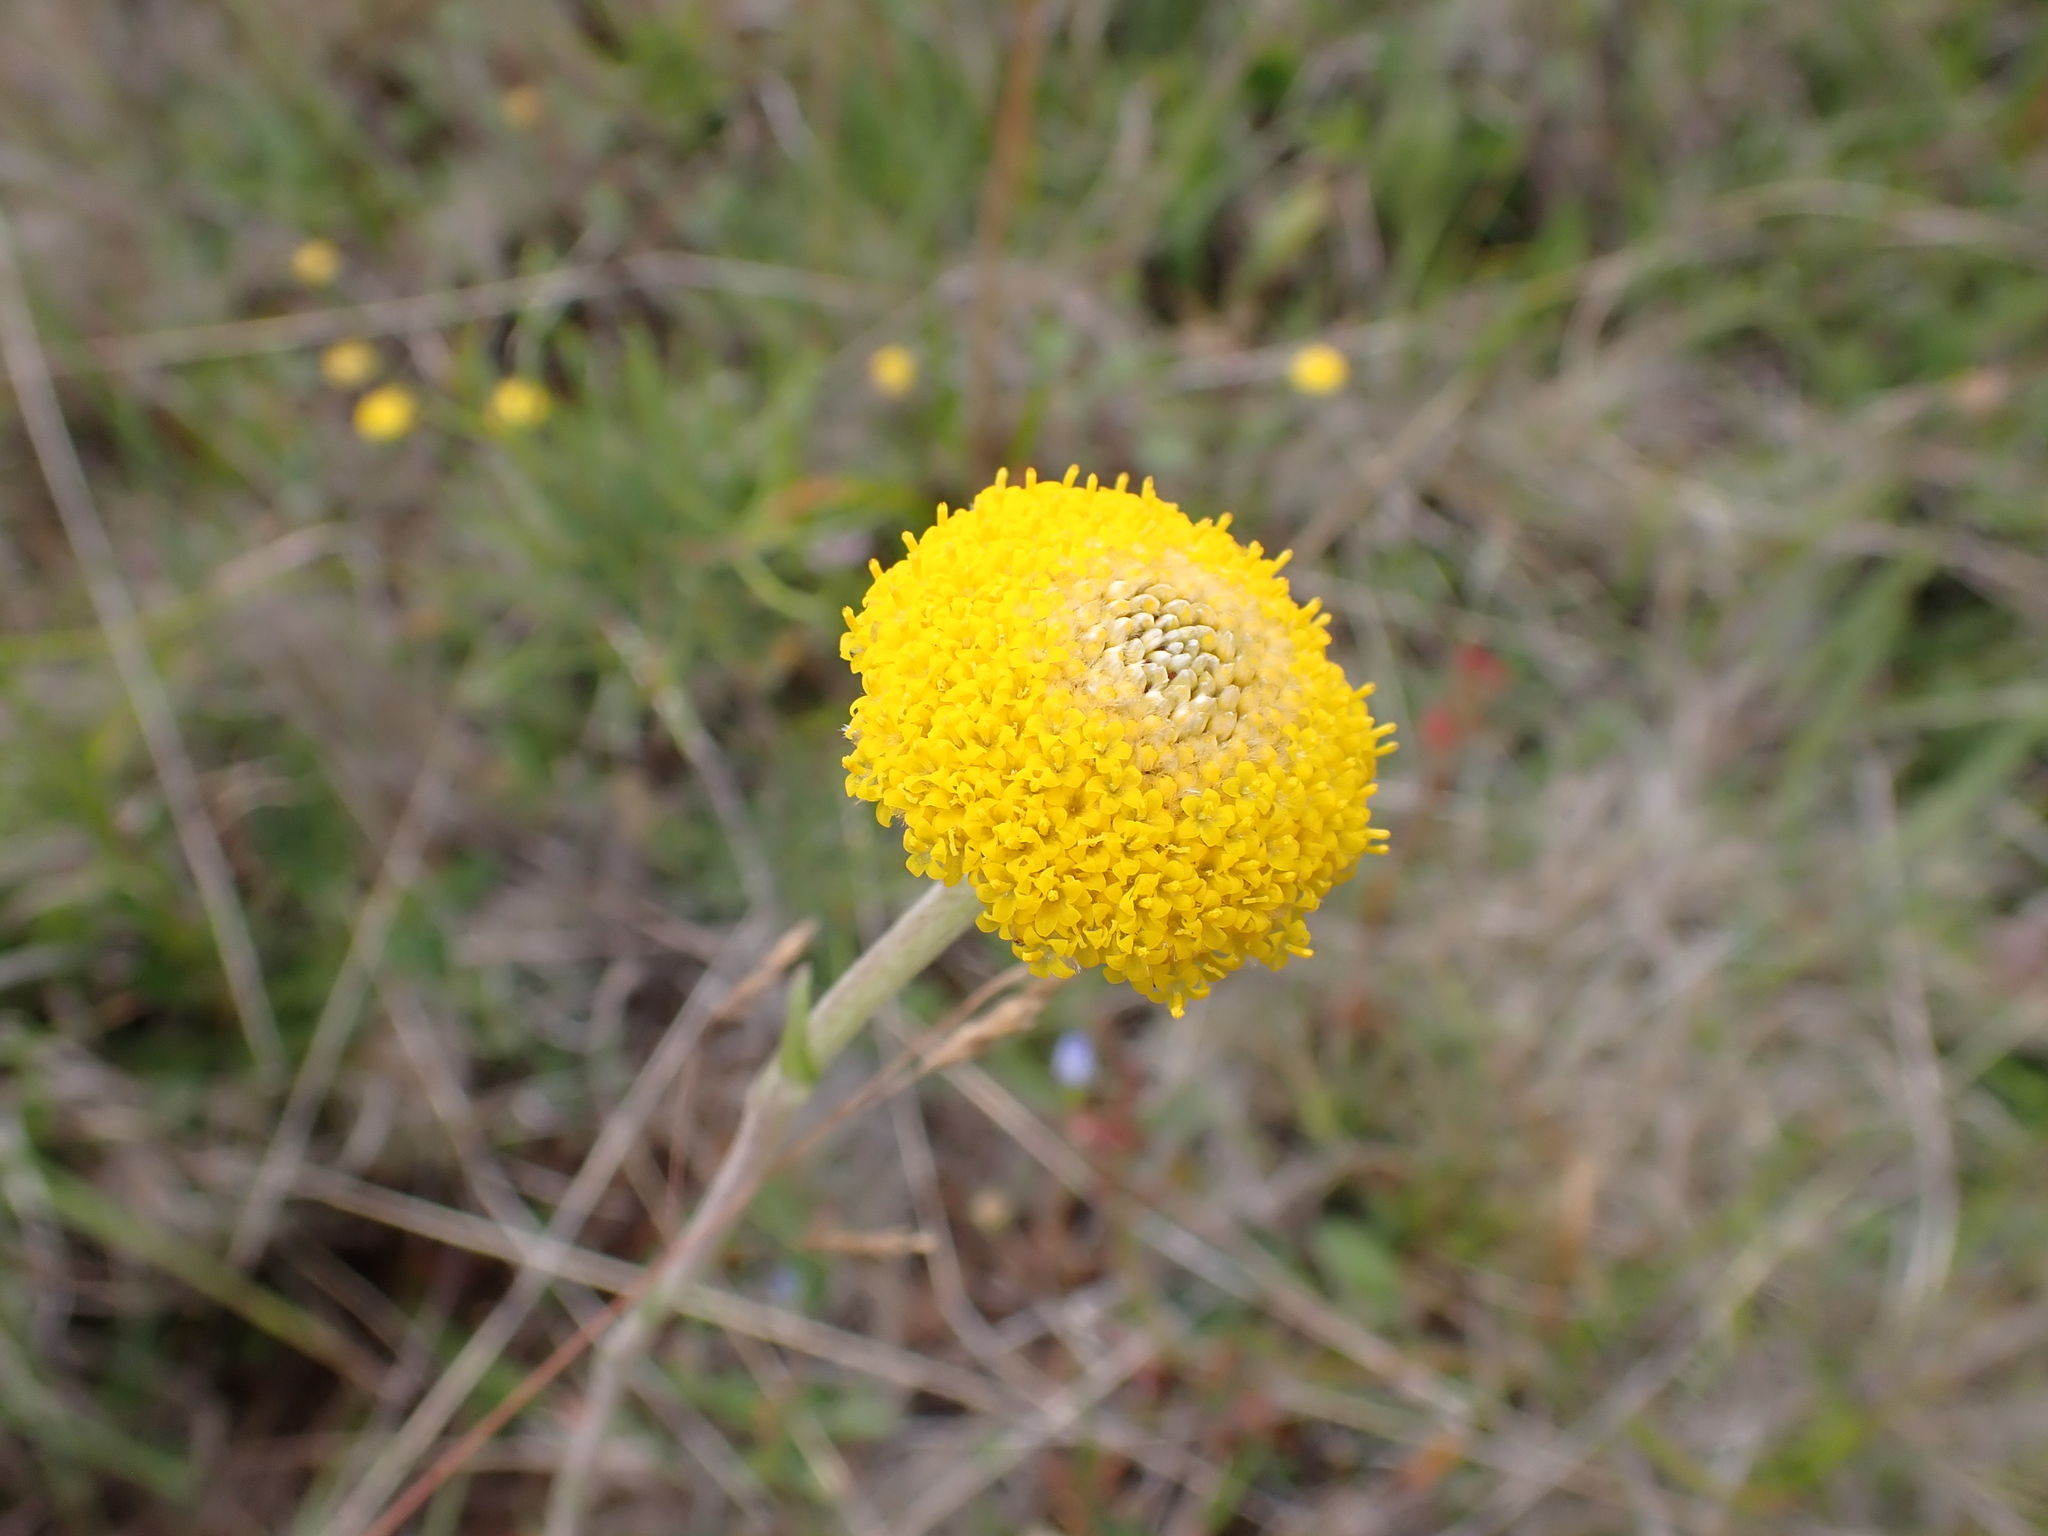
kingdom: Plantae
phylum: Tracheophyta
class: Magnoliopsida
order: Asterales
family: Asteraceae
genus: Craspedia
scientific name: Craspedia aurantia
